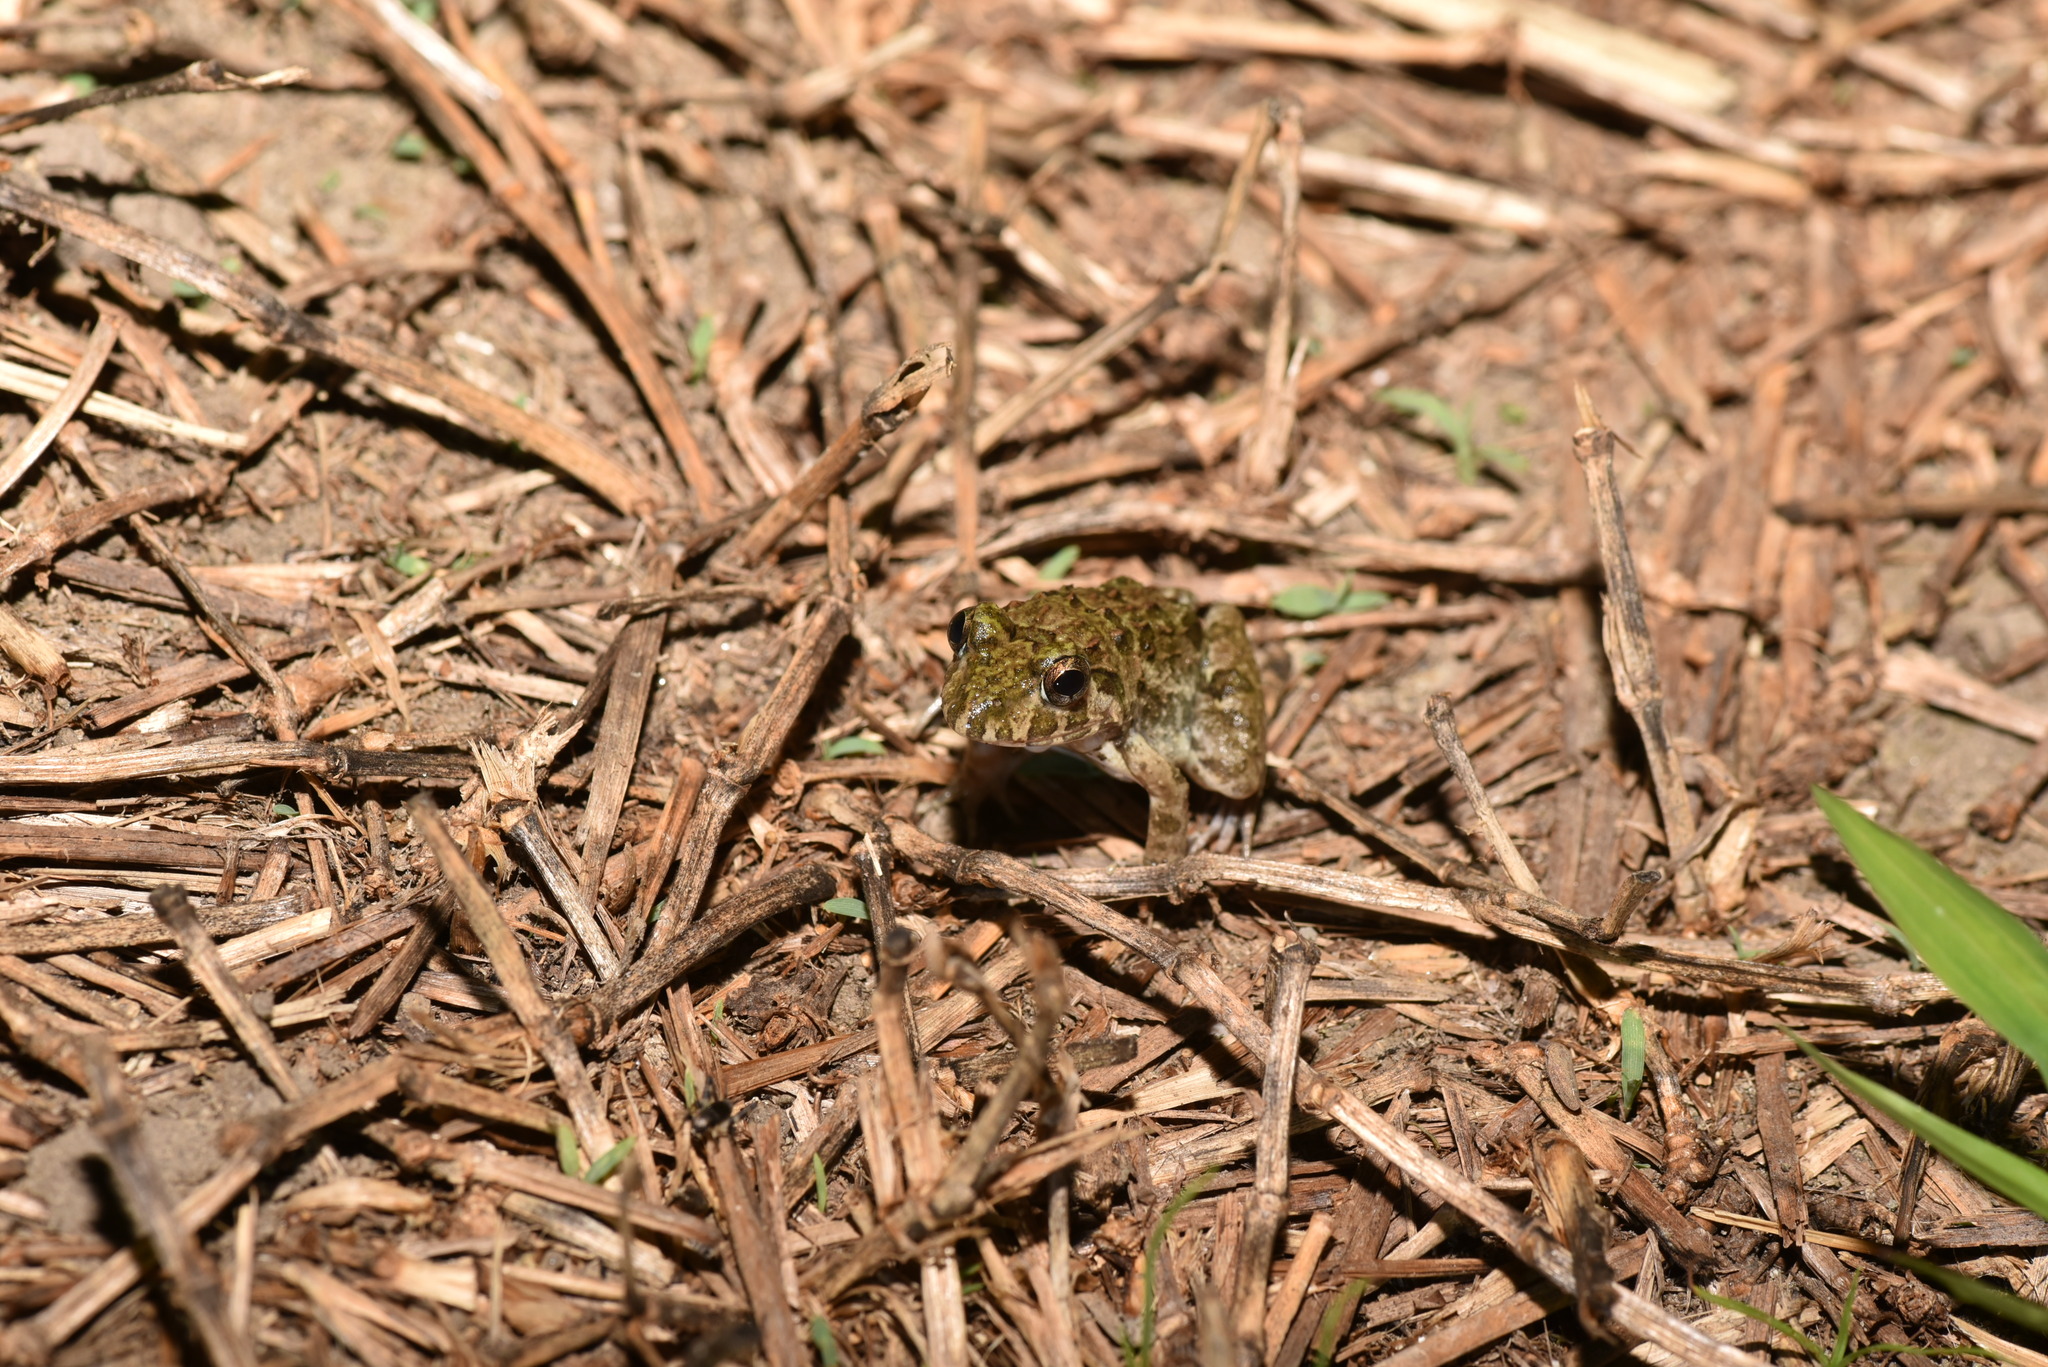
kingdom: Animalia
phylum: Chordata
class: Amphibia
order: Anura
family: Dicroglossidae
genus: Fejervarya
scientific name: Fejervarya limnocharis
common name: Asian grass frog/common pond frog/field frog/grass frog/indian rice frog
